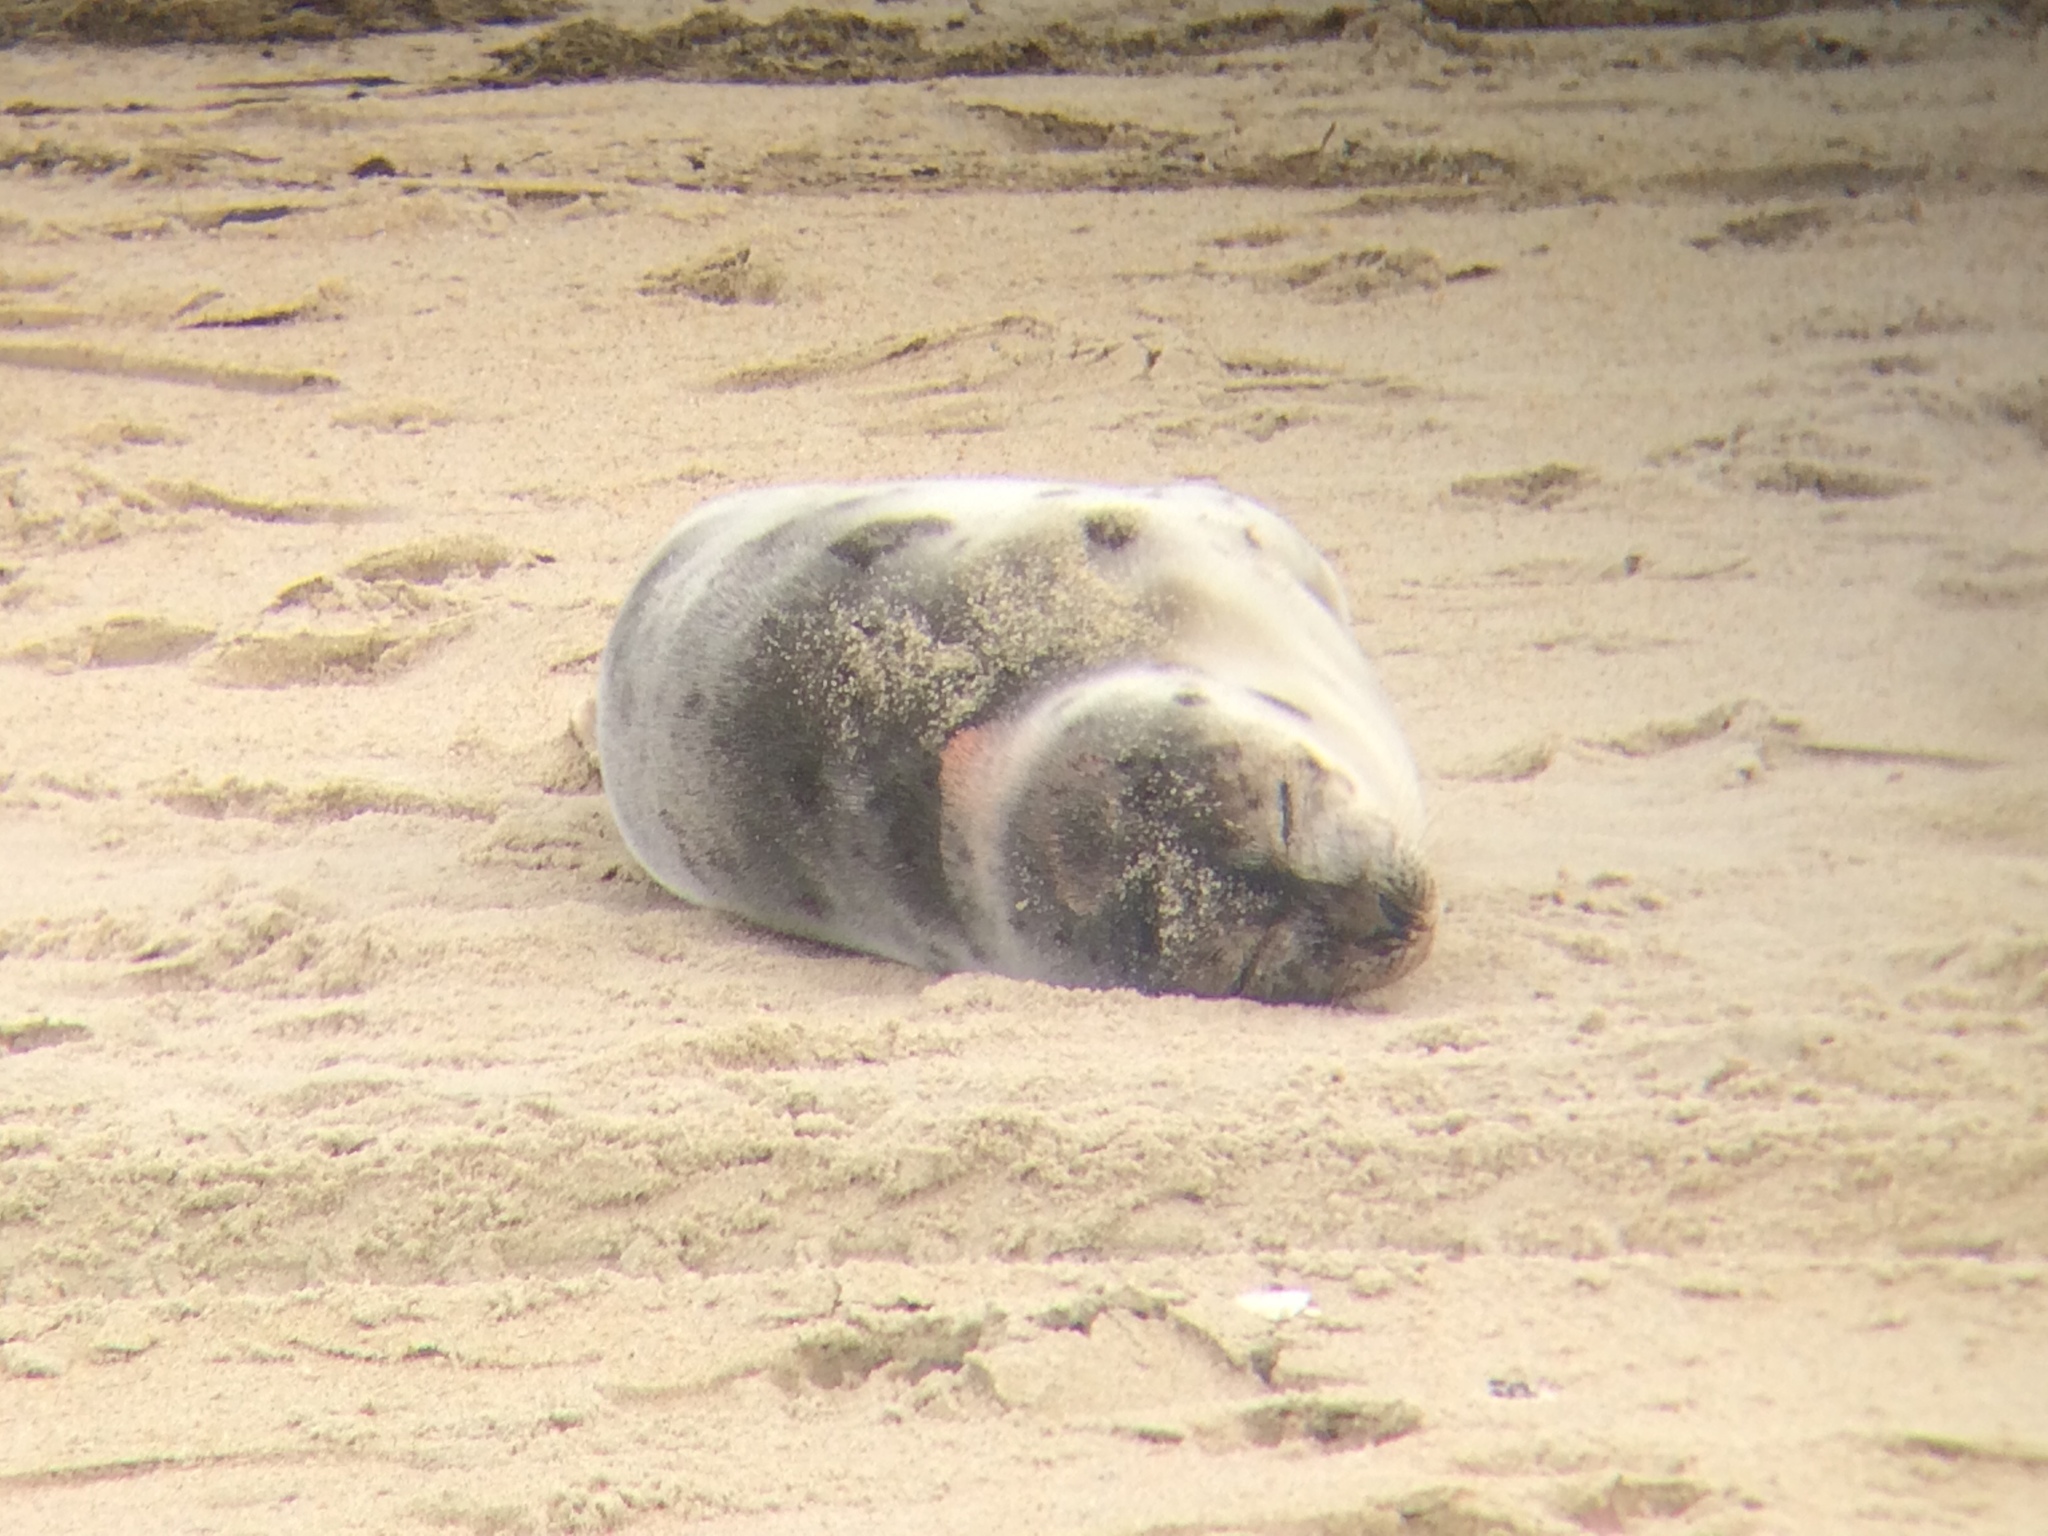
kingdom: Animalia
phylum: Chordata
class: Mammalia
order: Carnivora
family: Phocidae
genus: Pagophilus
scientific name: Pagophilus groenlandicus
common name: Harp seal
